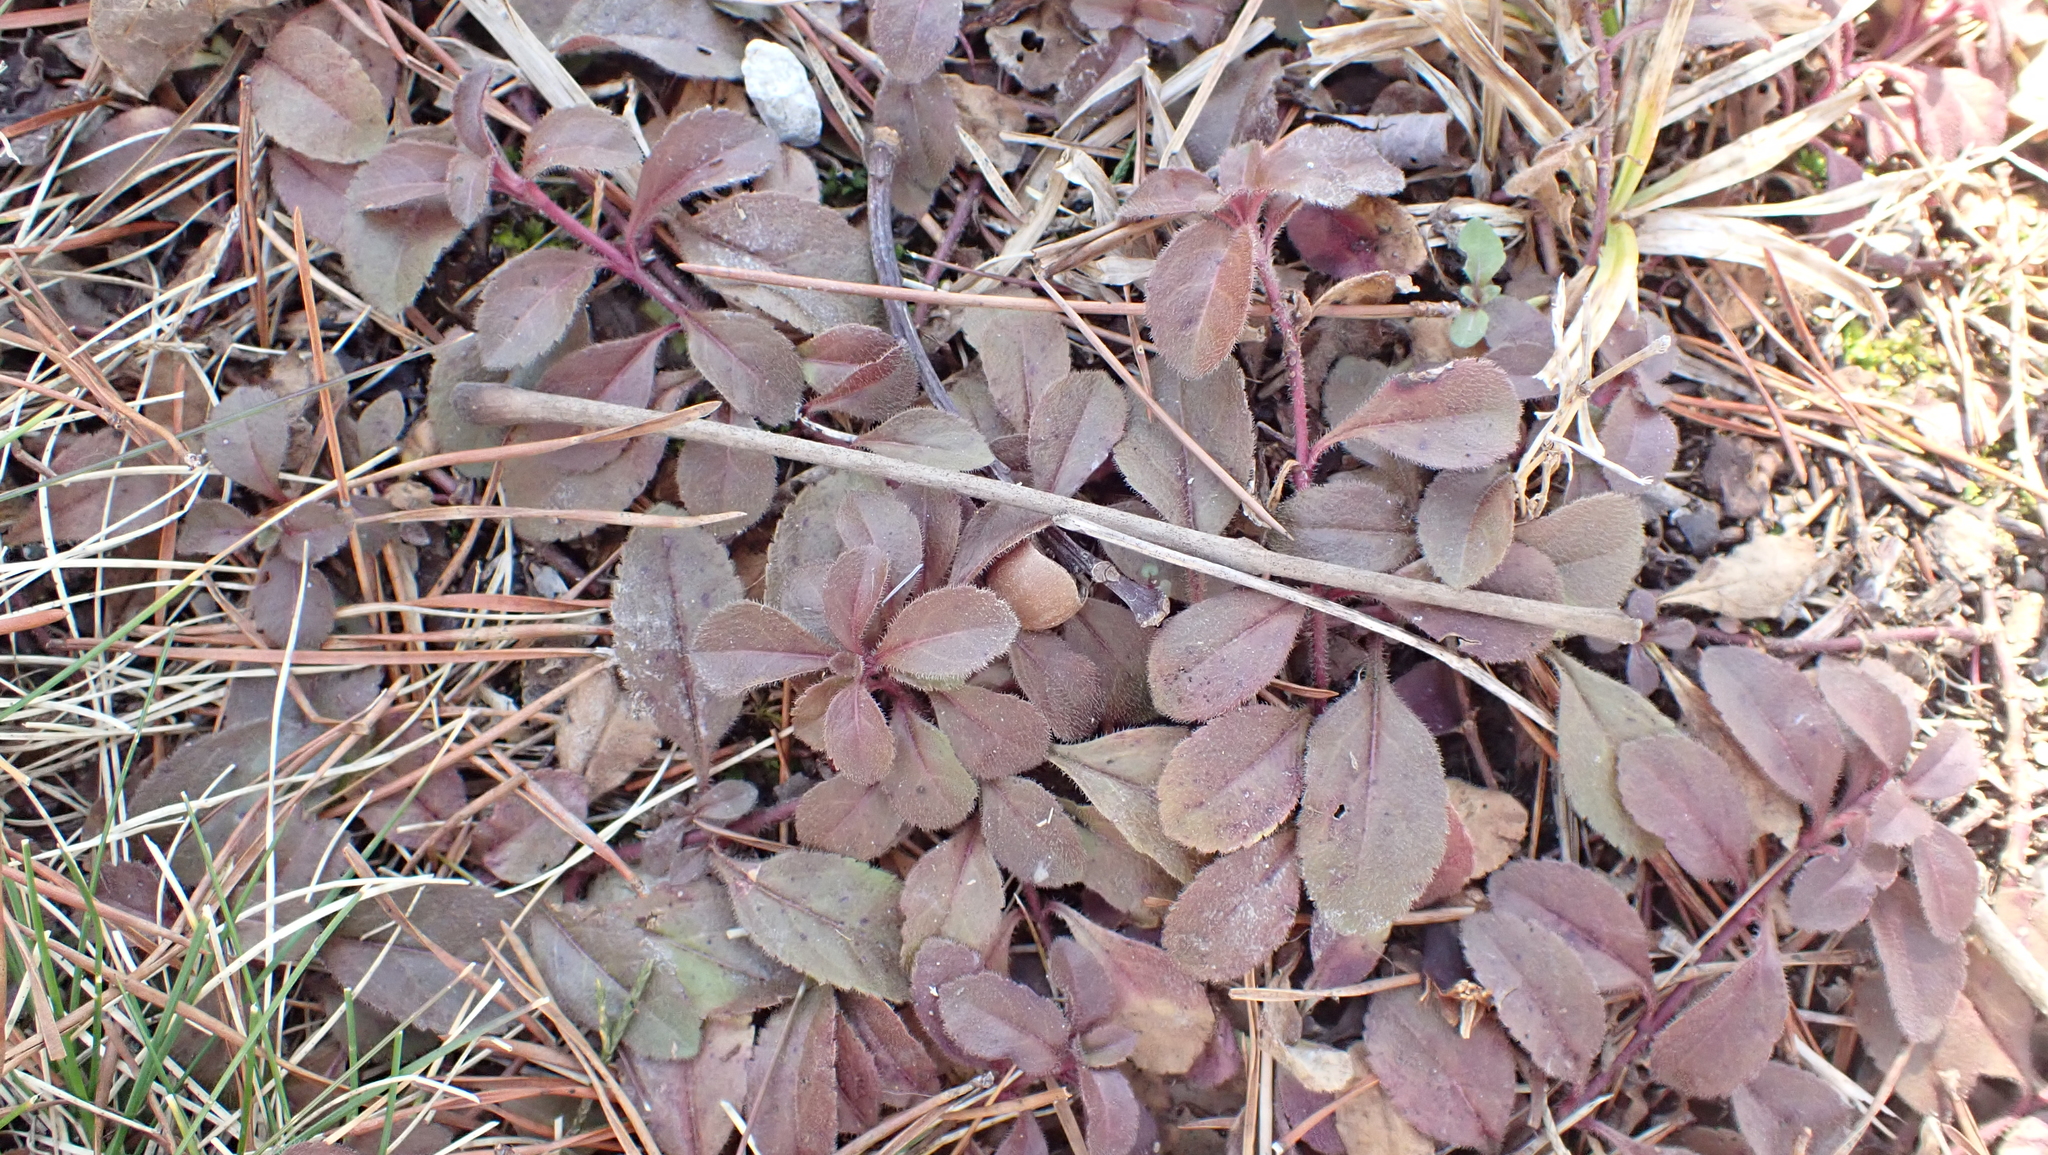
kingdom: Plantae
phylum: Tracheophyta
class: Magnoliopsida
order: Lamiales
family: Plantaginaceae
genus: Veronica
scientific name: Veronica officinalis
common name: Common speedwell
